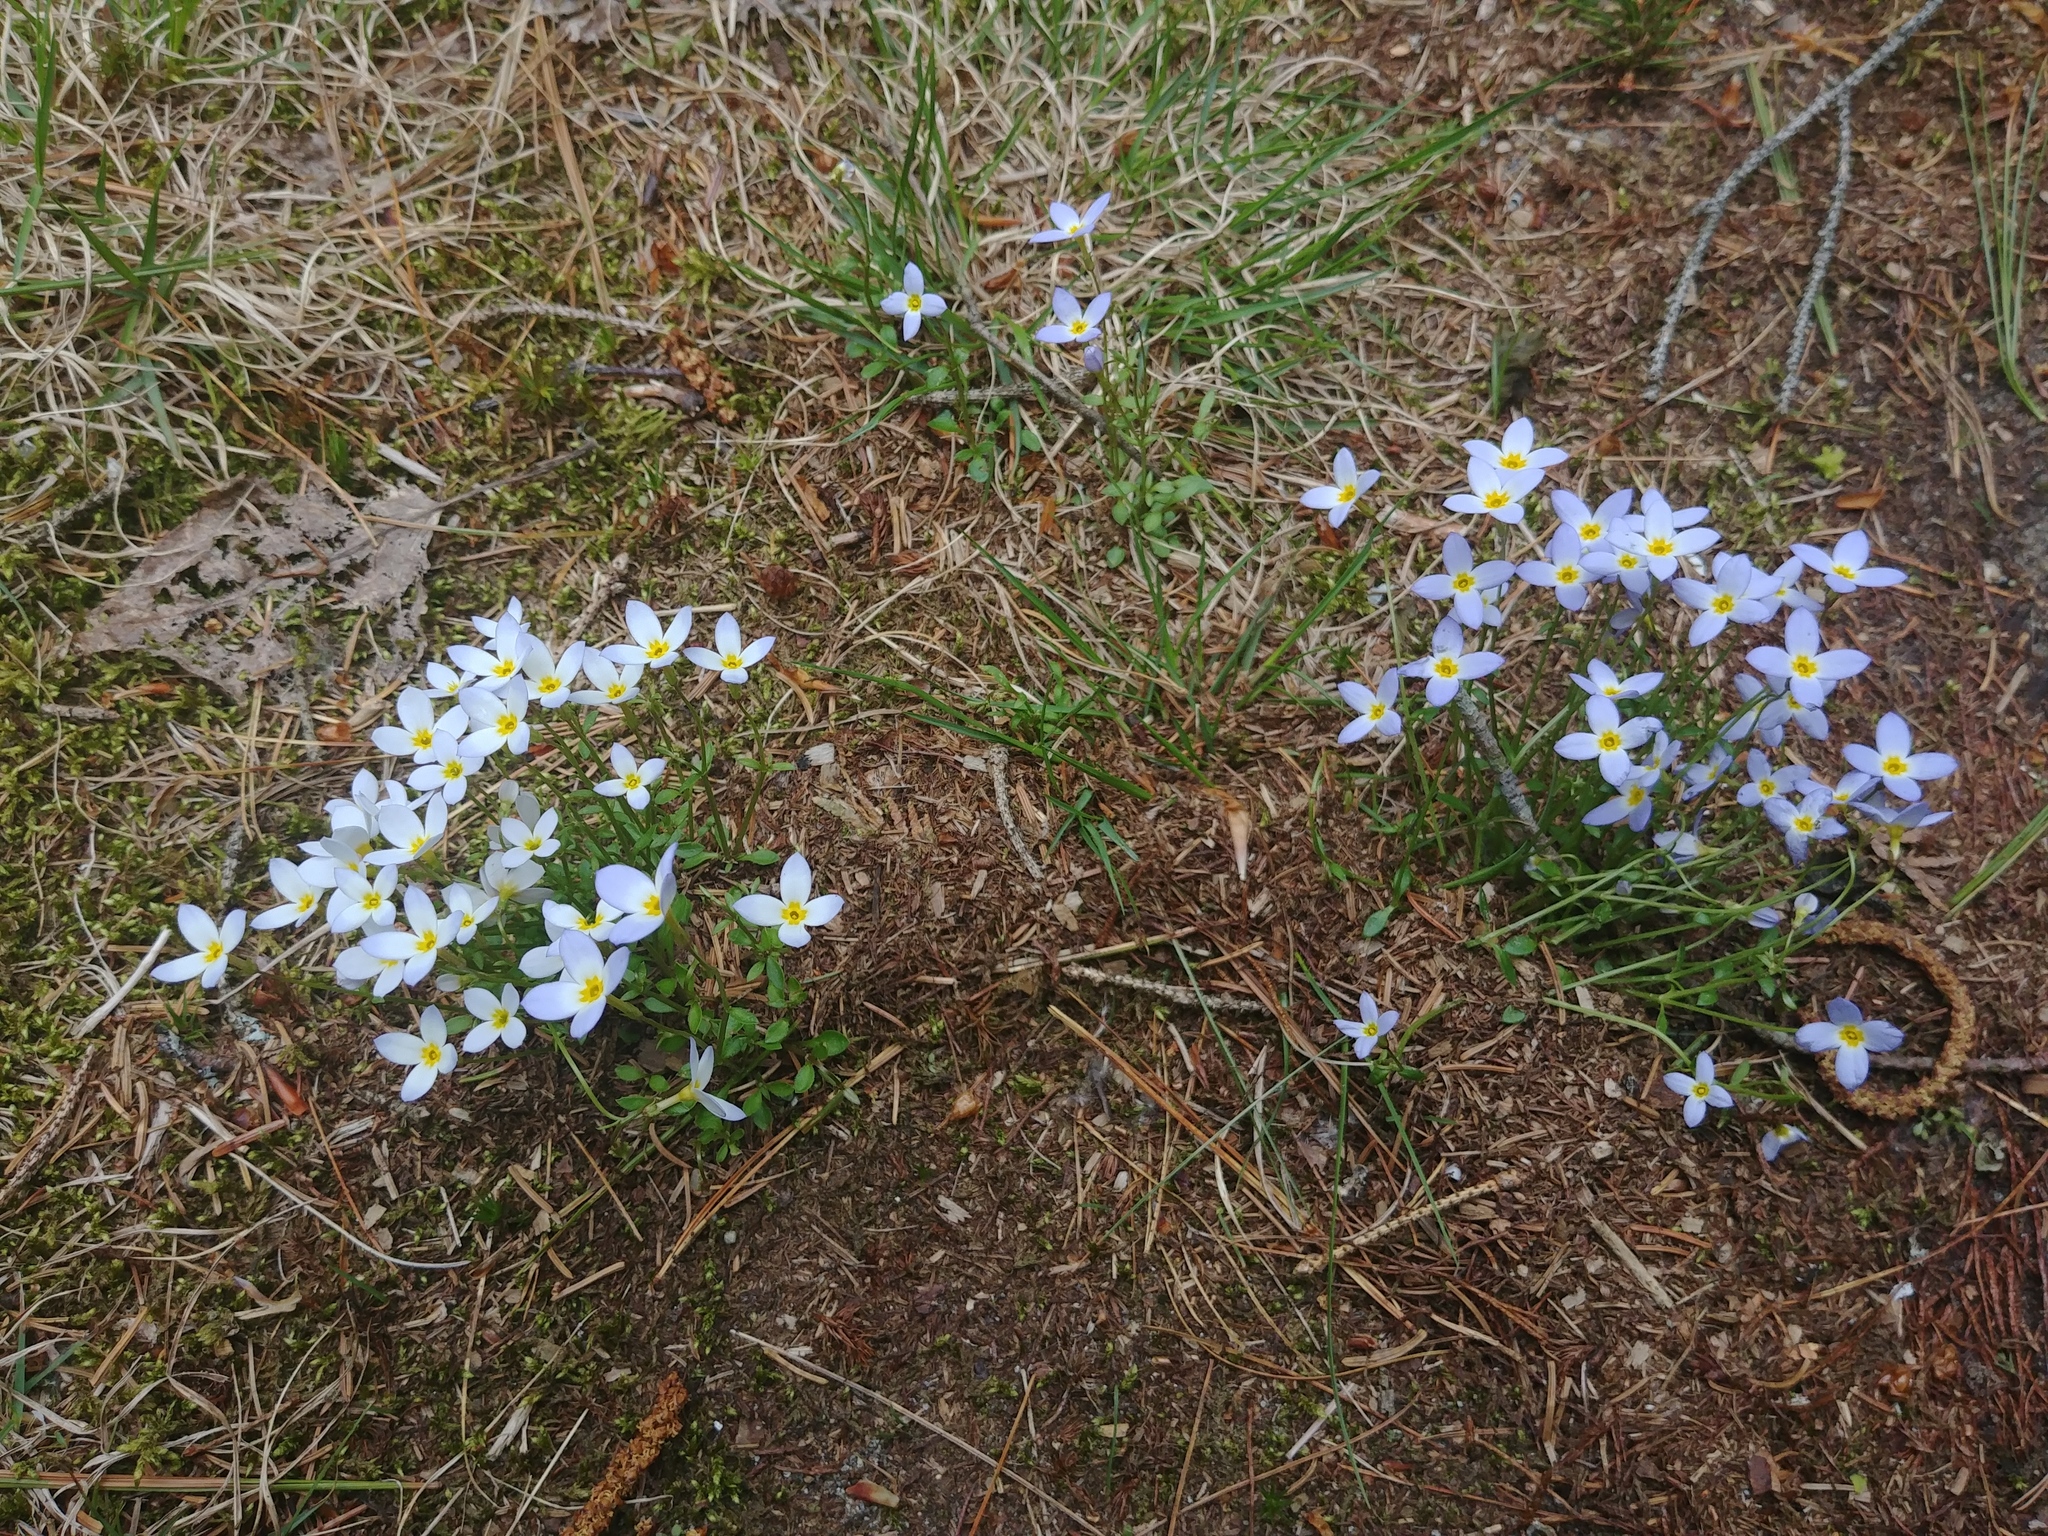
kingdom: Plantae
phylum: Tracheophyta
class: Magnoliopsida
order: Gentianales
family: Rubiaceae
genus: Houstonia
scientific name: Houstonia caerulea
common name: Bluets
